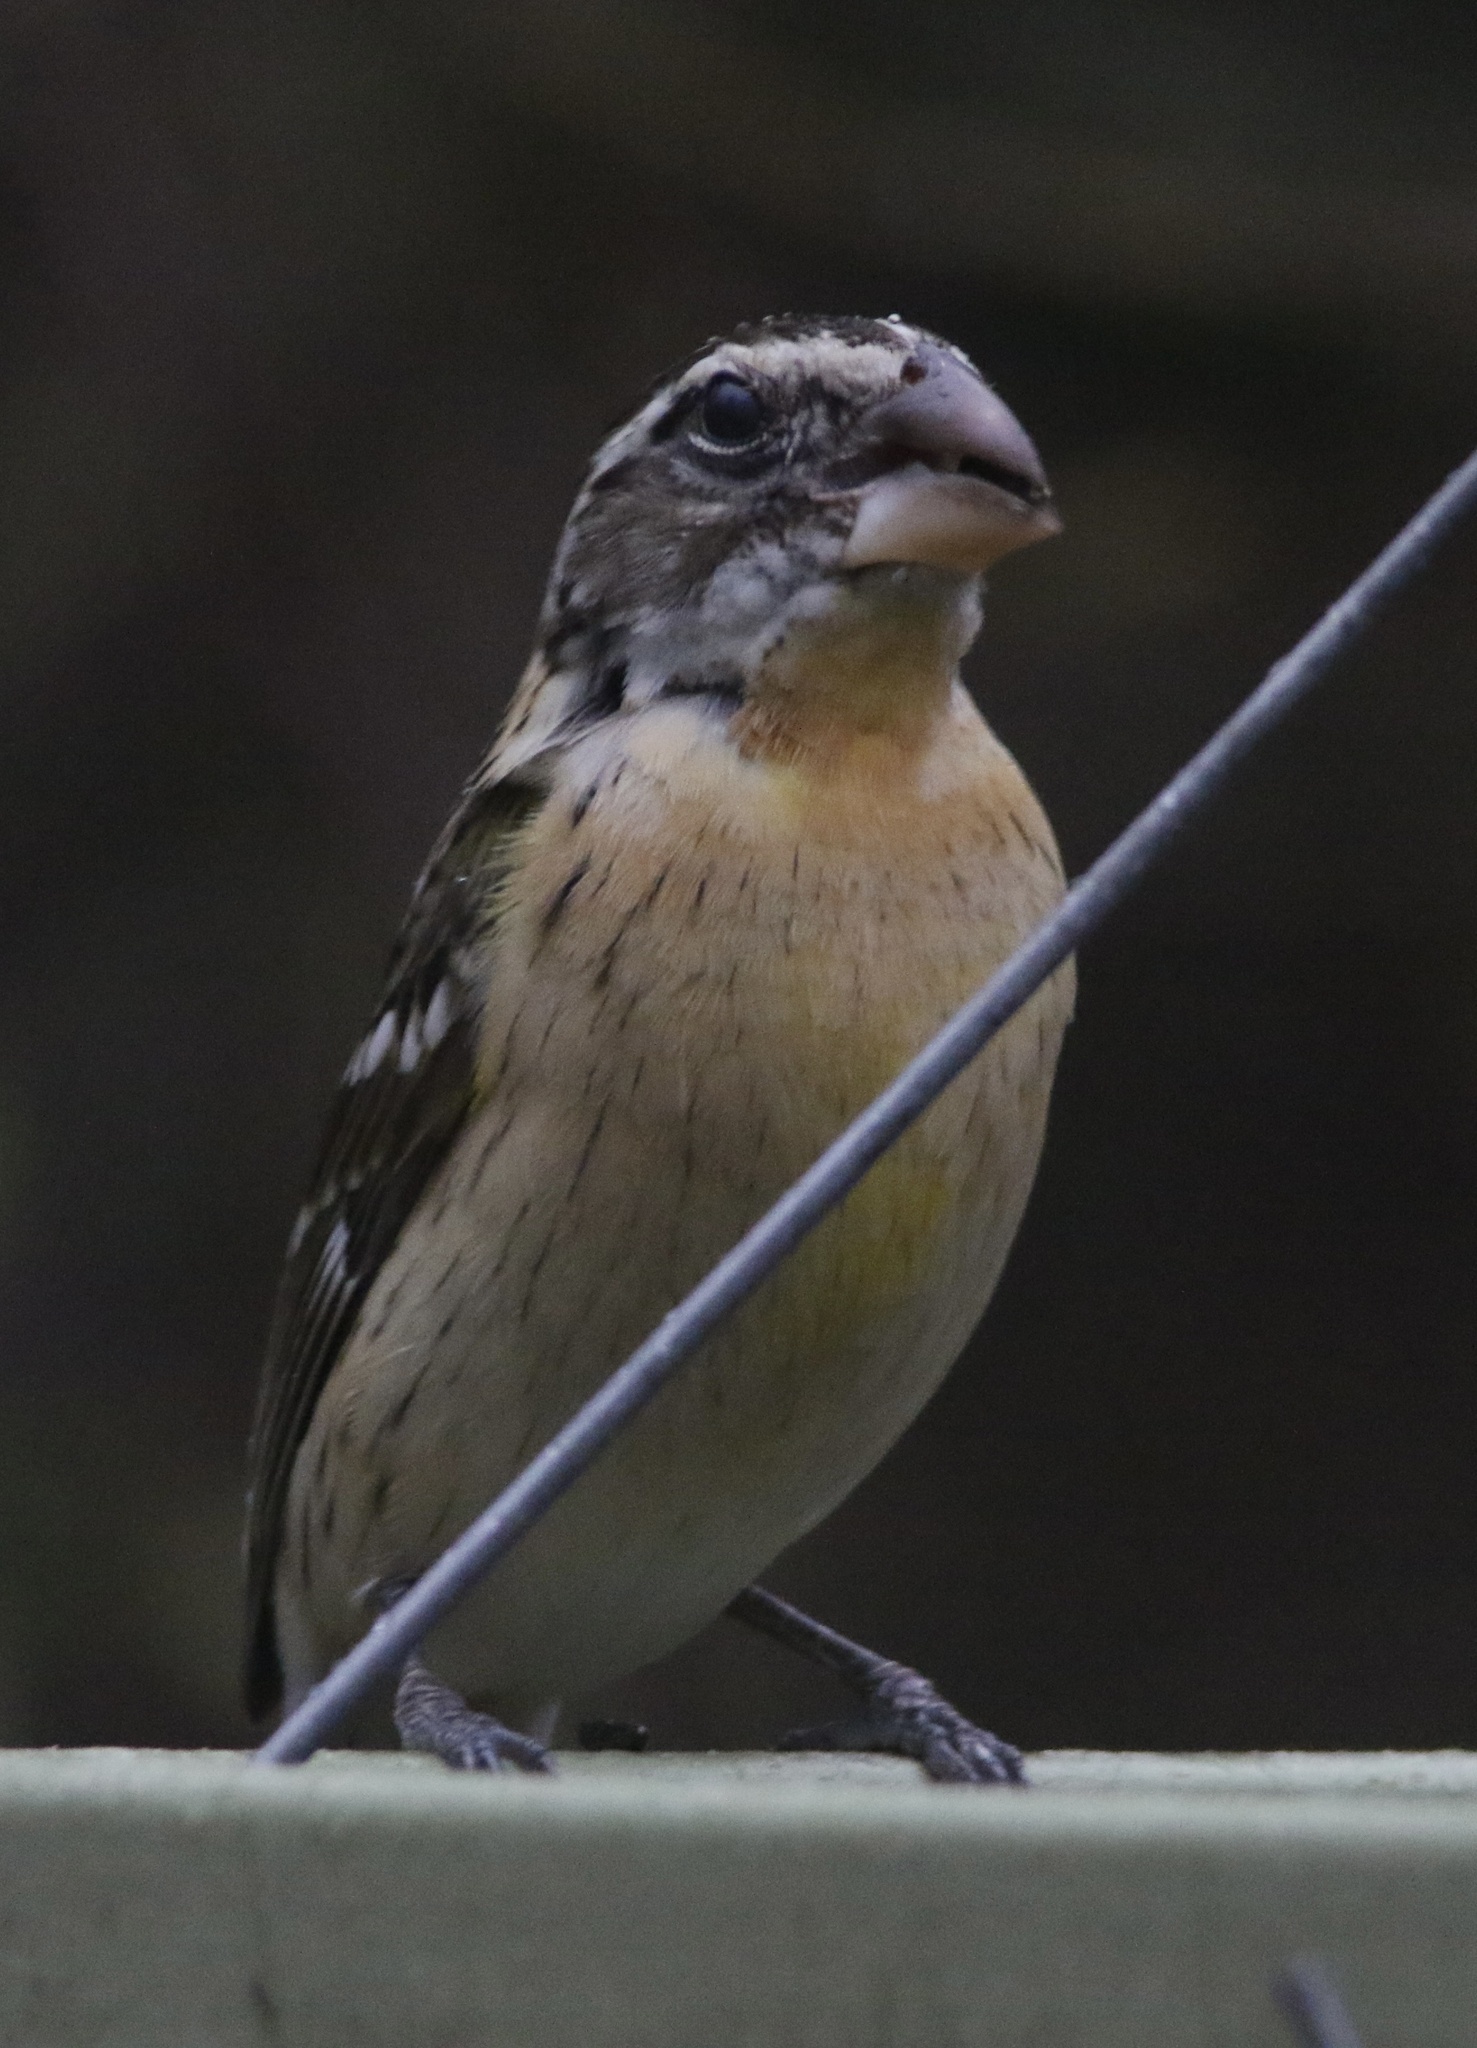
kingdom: Animalia
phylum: Chordata
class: Aves
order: Passeriformes
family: Cardinalidae
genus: Pheucticus
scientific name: Pheucticus melanocephalus
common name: Black-headed grosbeak
